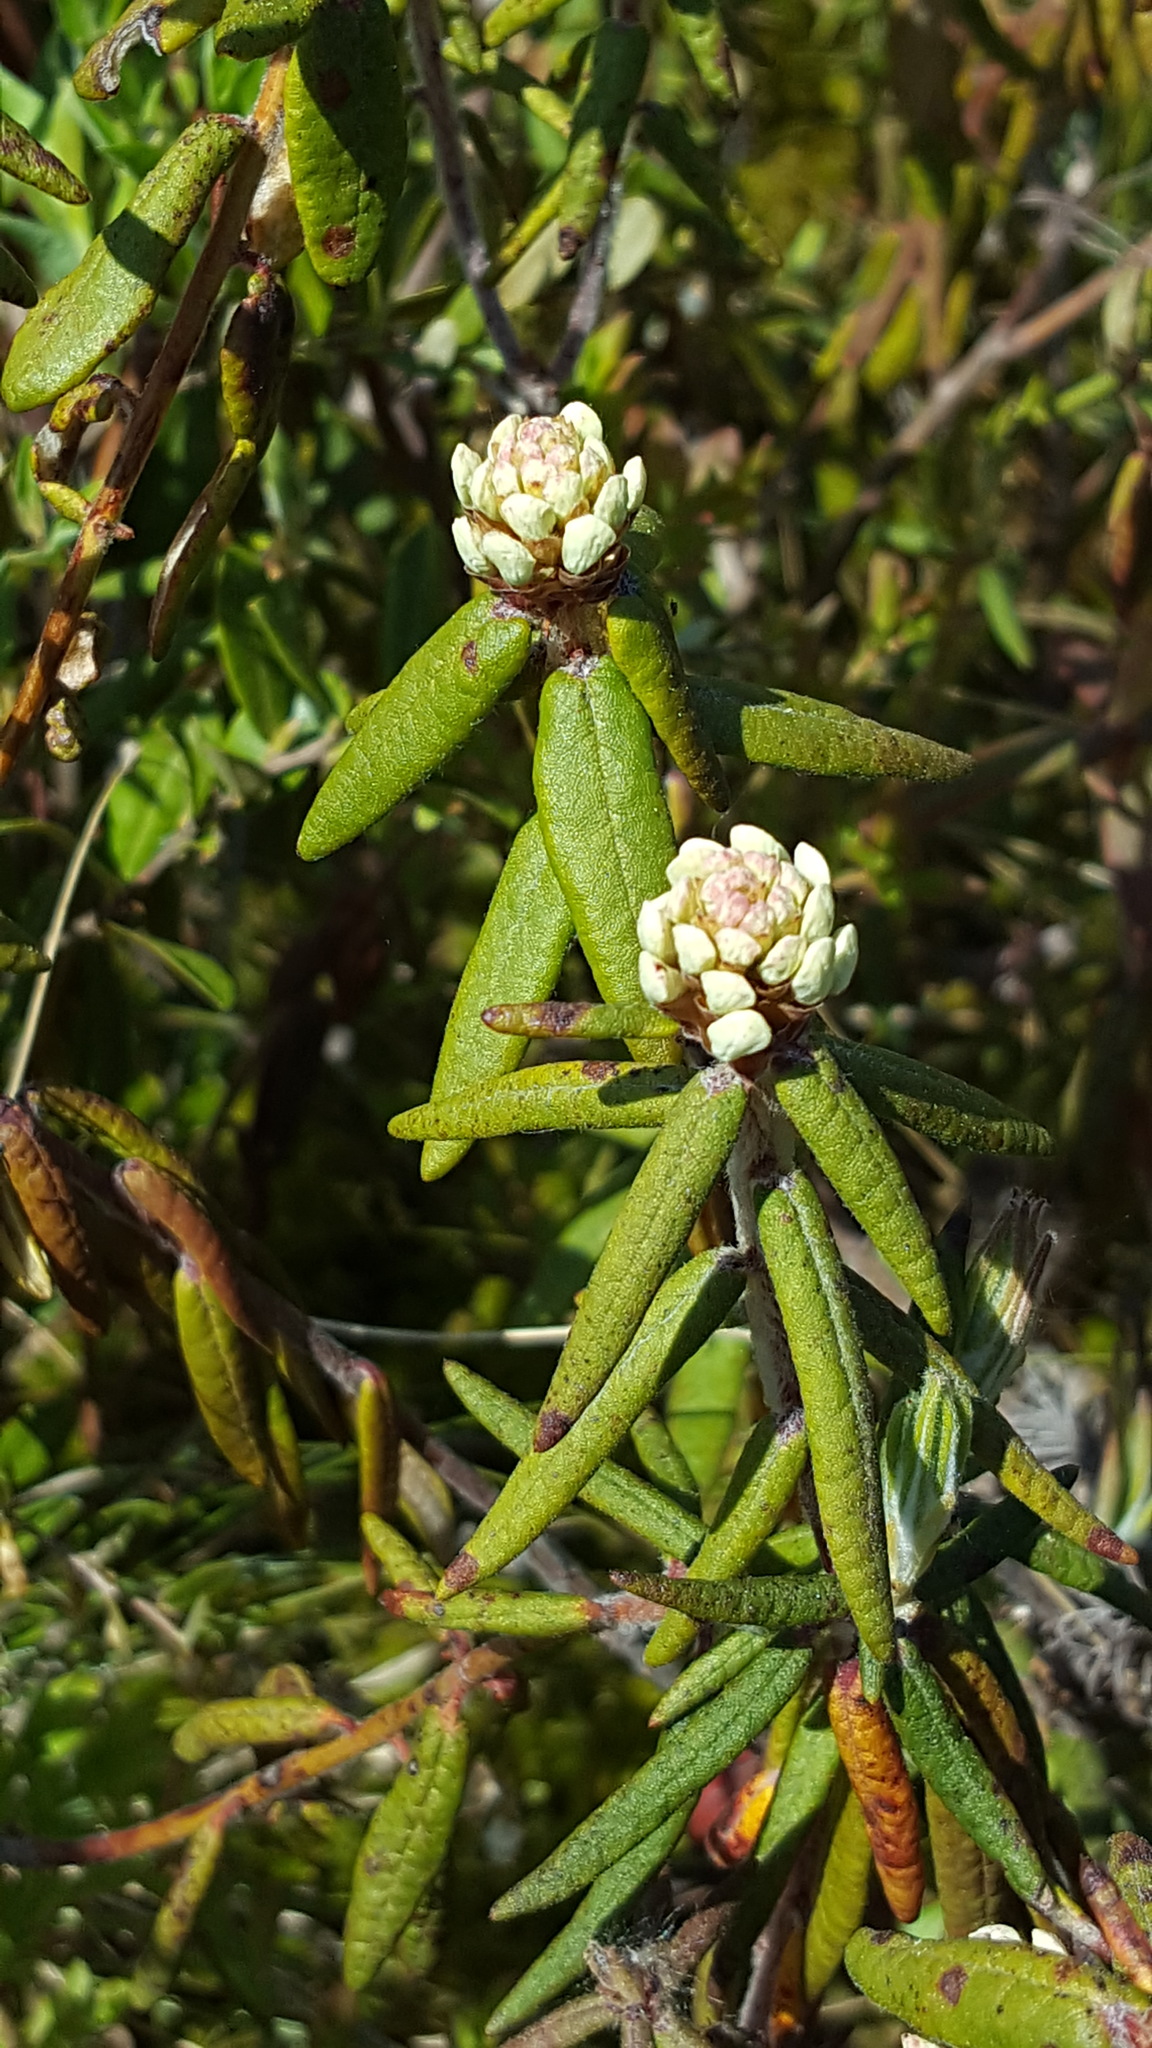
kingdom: Plantae
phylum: Tracheophyta
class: Magnoliopsida
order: Ericales
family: Ericaceae
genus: Rhododendron
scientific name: Rhododendron groenlandicum
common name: Bog labrador tea
